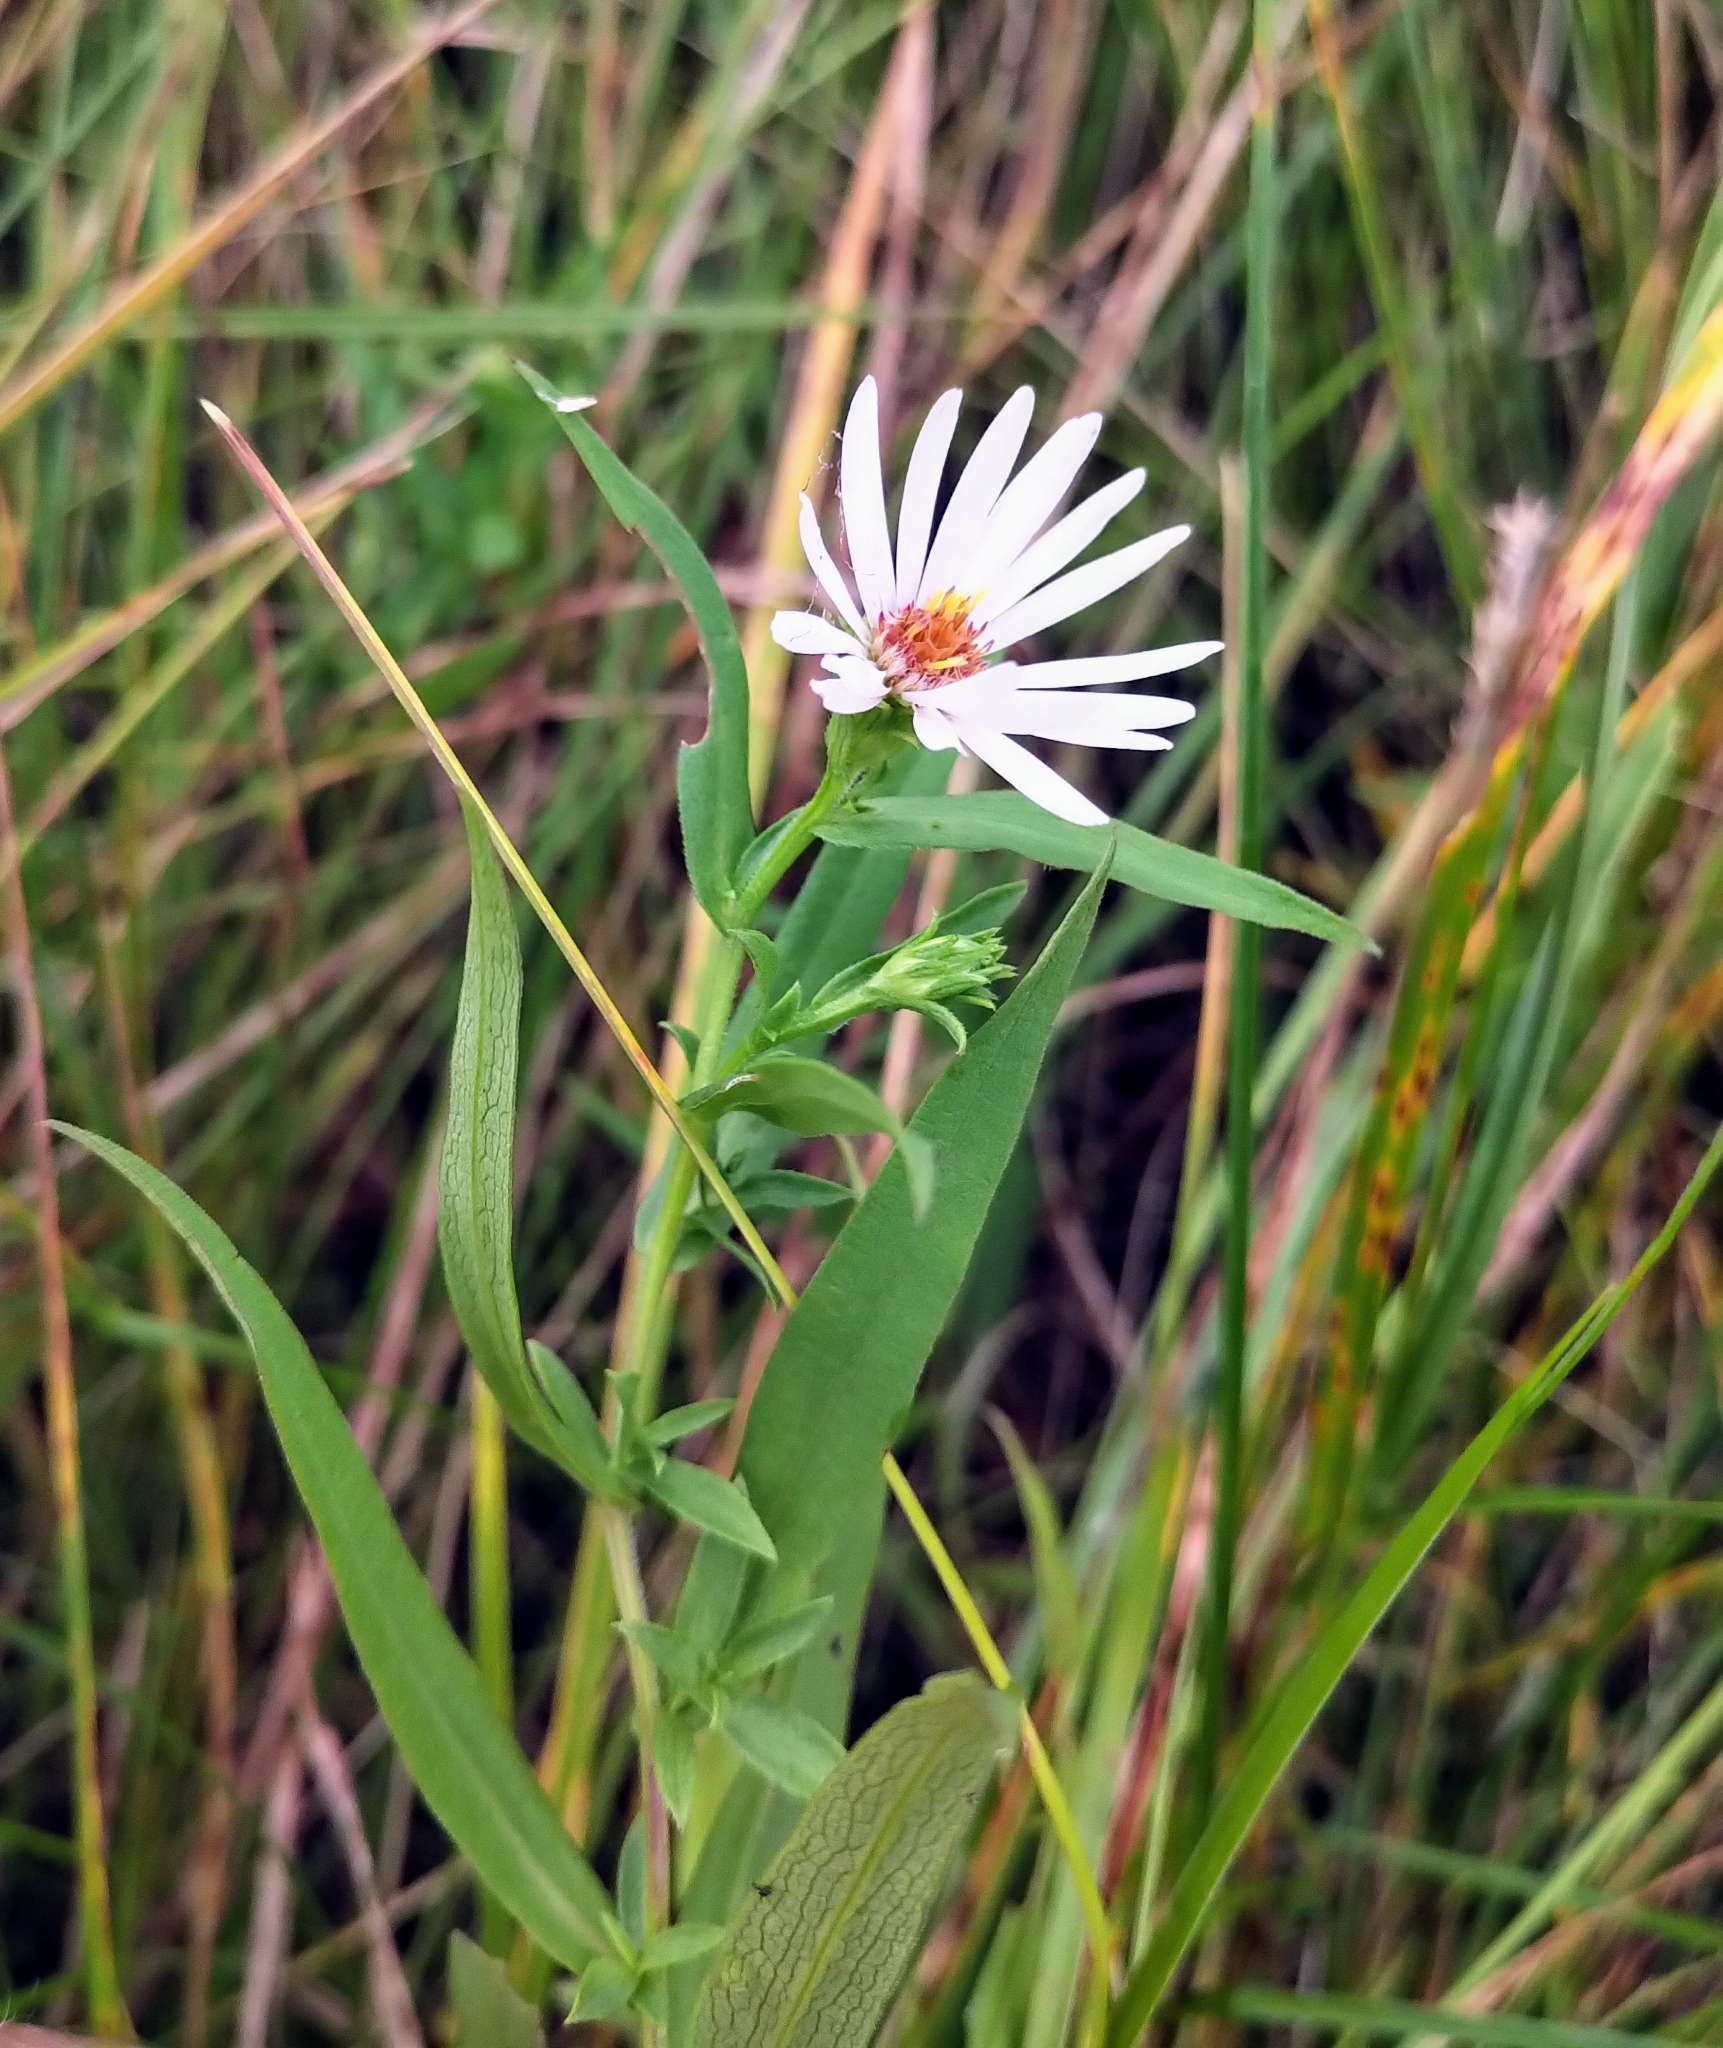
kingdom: Plantae
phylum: Tracheophyta
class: Magnoliopsida
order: Asterales
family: Asteraceae
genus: Symphyotrichum
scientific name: Symphyotrichum lanceolatum
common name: Panicled aster
